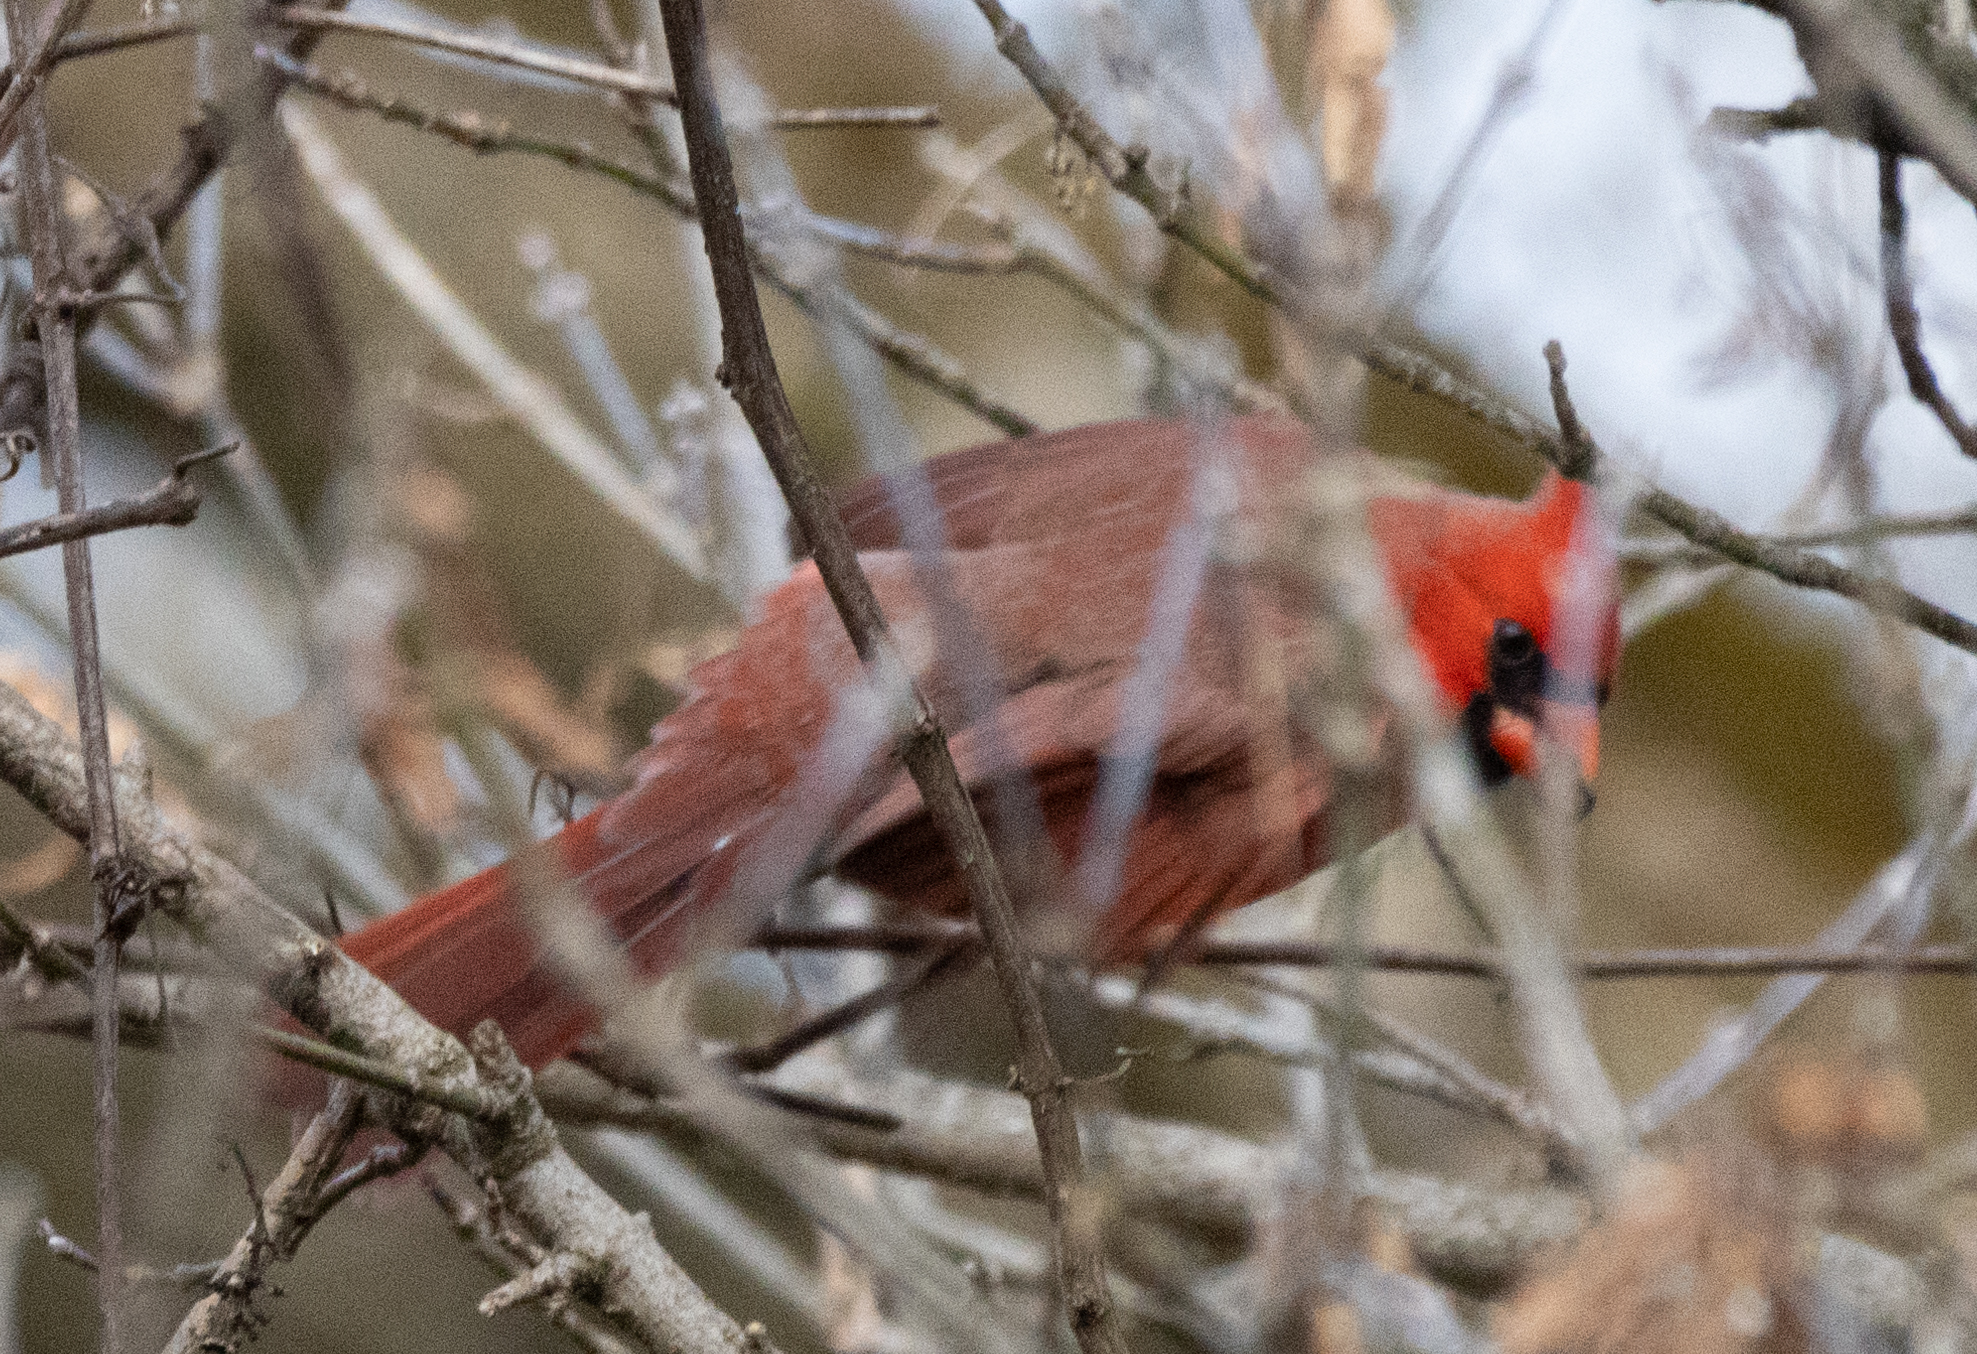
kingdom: Animalia
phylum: Chordata
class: Aves
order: Passeriformes
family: Cardinalidae
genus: Cardinalis
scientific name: Cardinalis cardinalis
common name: Northern cardinal
